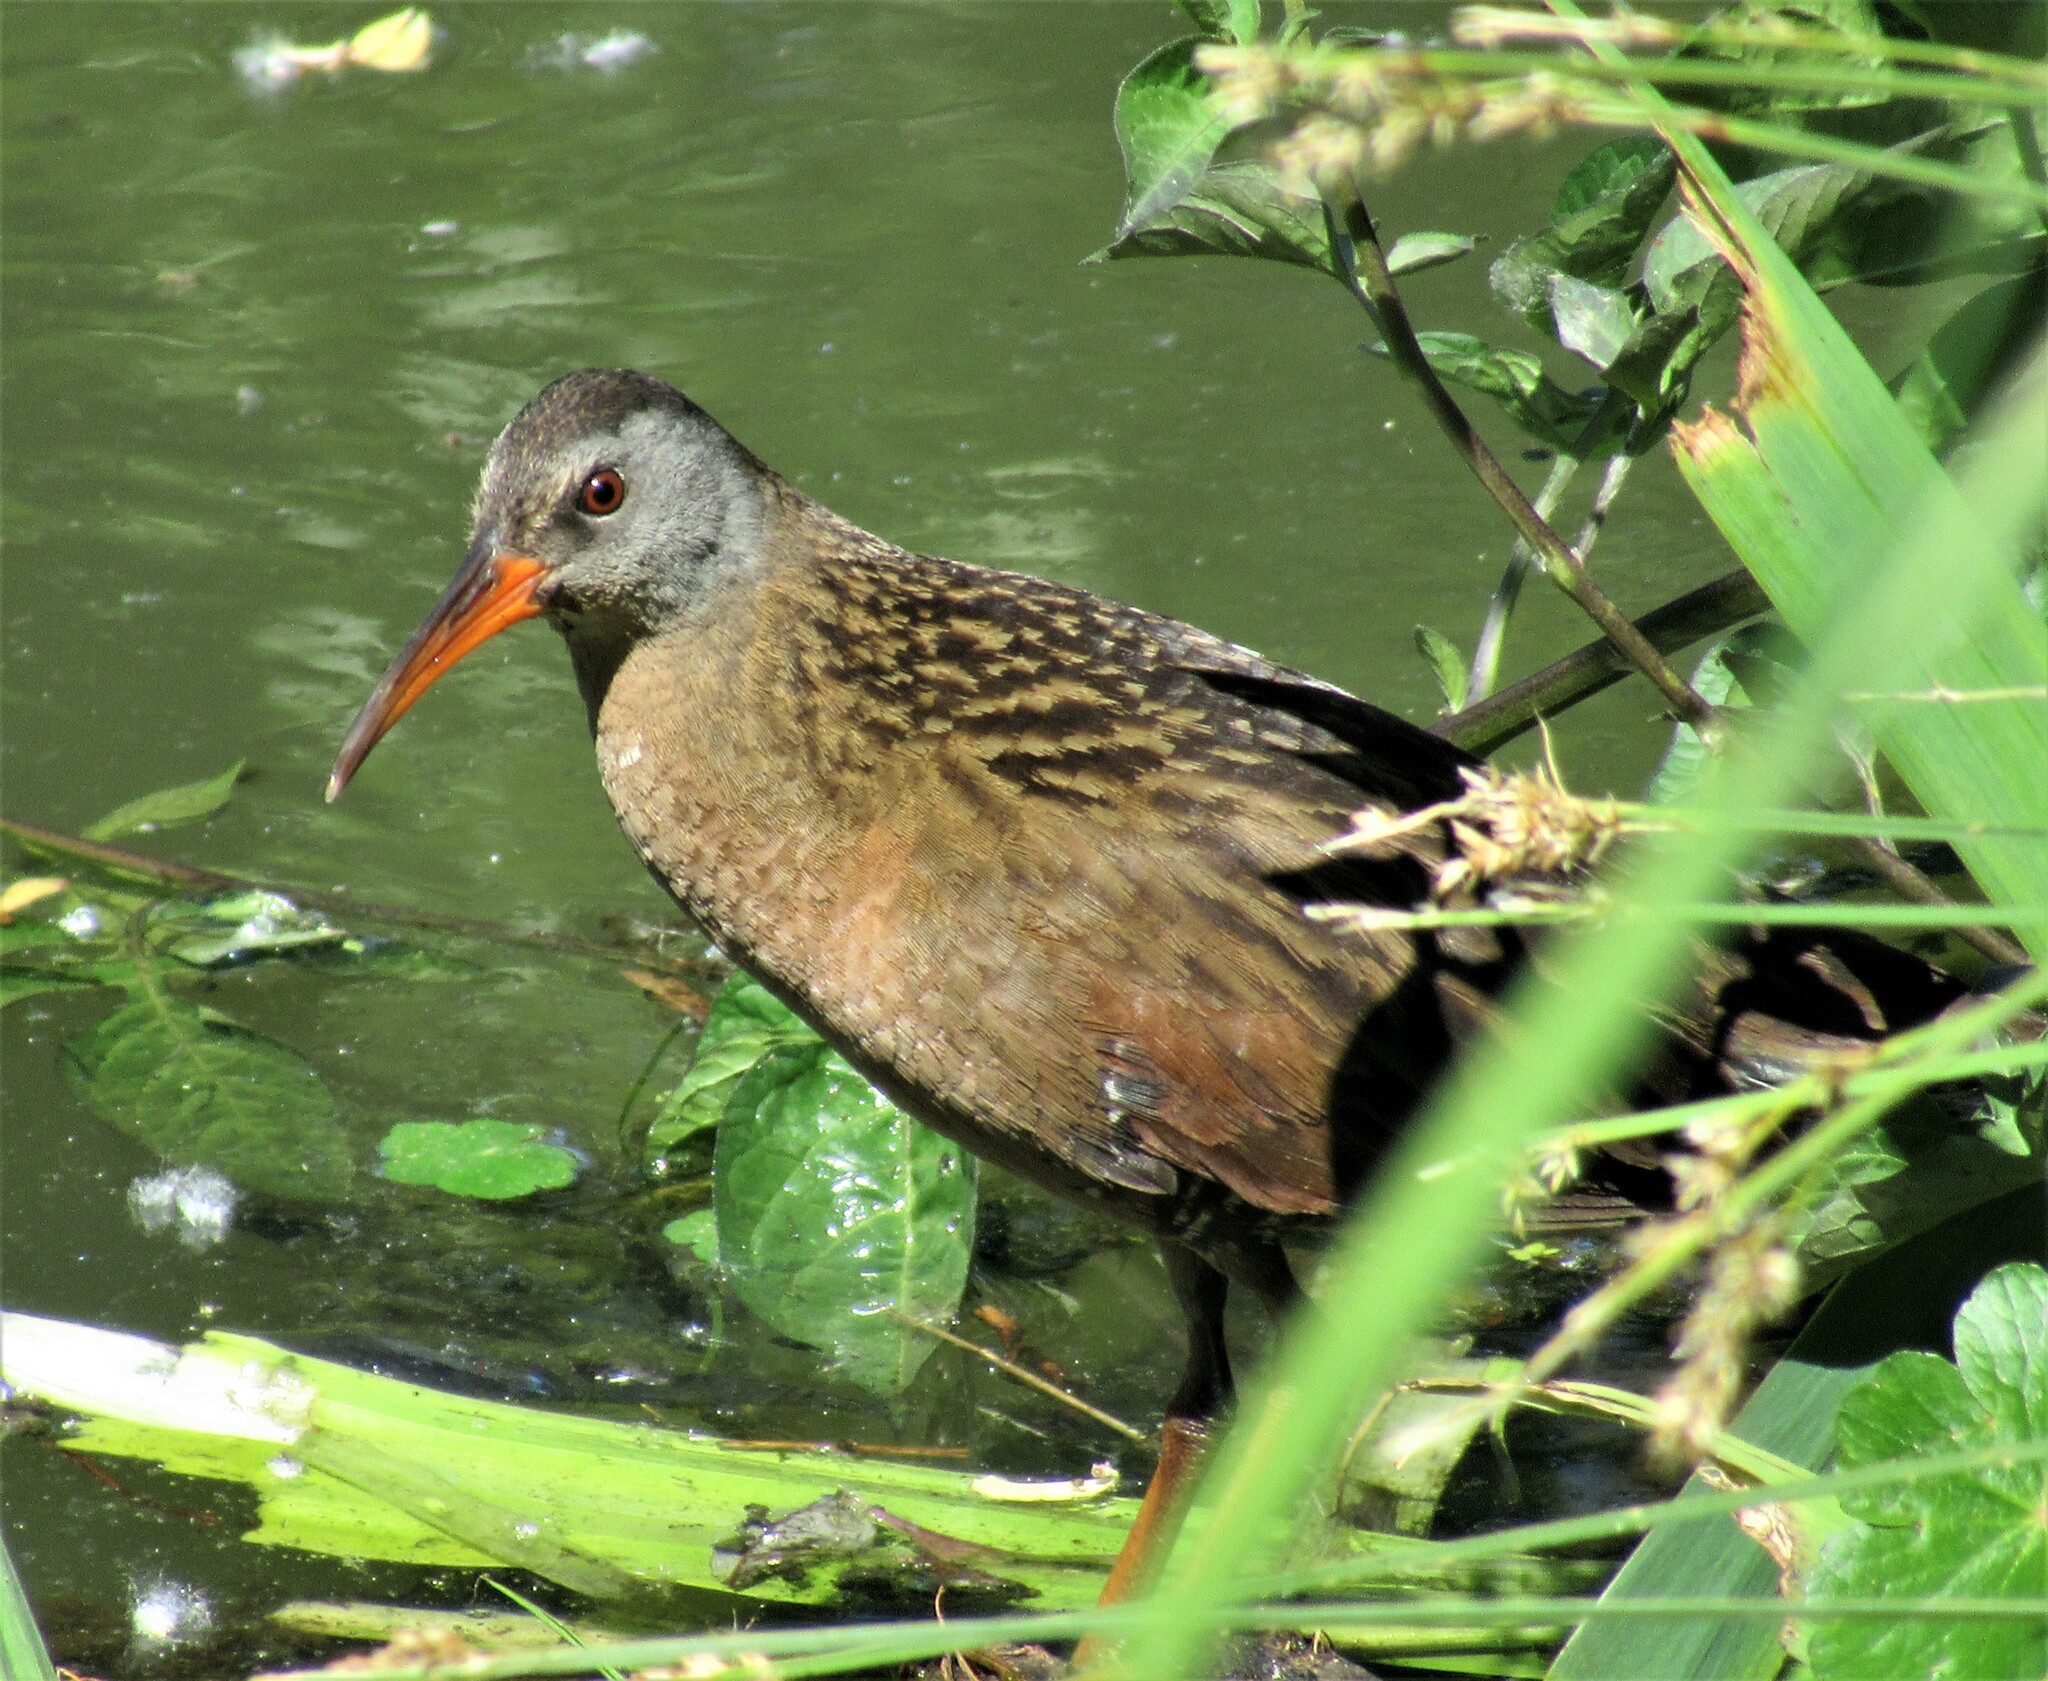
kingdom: Animalia
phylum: Chordata
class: Aves
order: Gruiformes
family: Rallidae
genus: Rallus
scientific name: Rallus limicola
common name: Virginia rail
